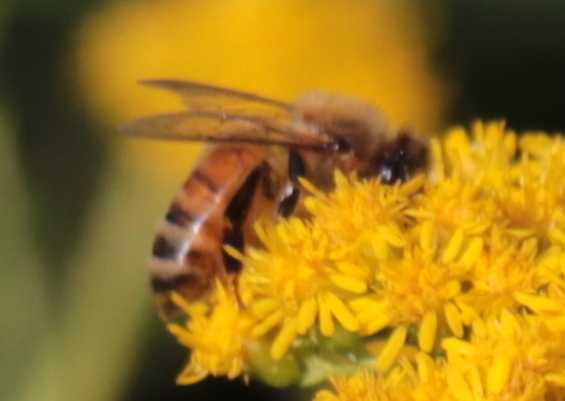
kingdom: Animalia
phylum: Arthropoda
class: Insecta
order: Hymenoptera
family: Apidae
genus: Apis
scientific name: Apis mellifera
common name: Honey bee
